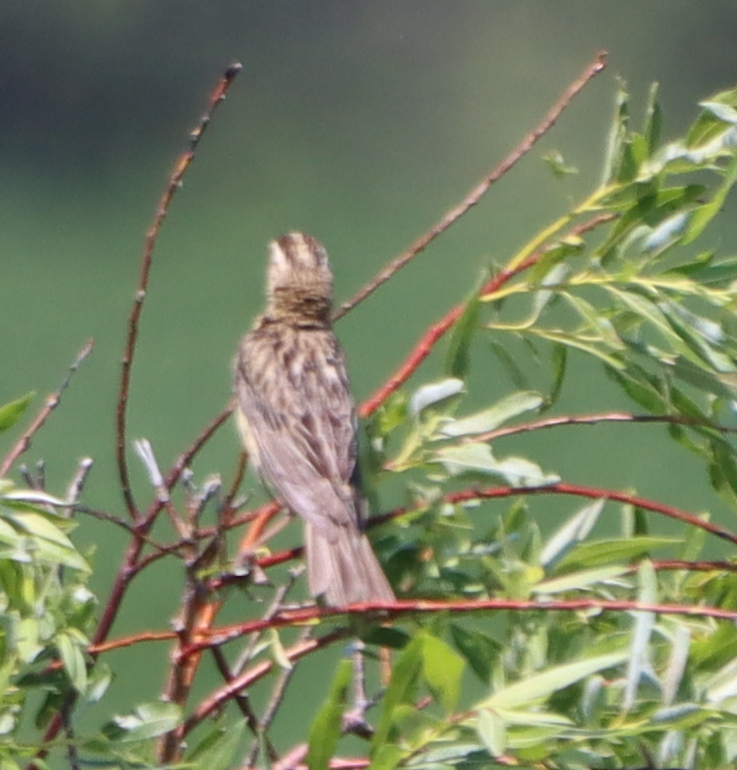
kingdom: Animalia
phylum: Chordata
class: Aves
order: Passeriformes
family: Icteridae
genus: Dolichonyx
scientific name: Dolichonyx oryzivorus
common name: Bobolink
